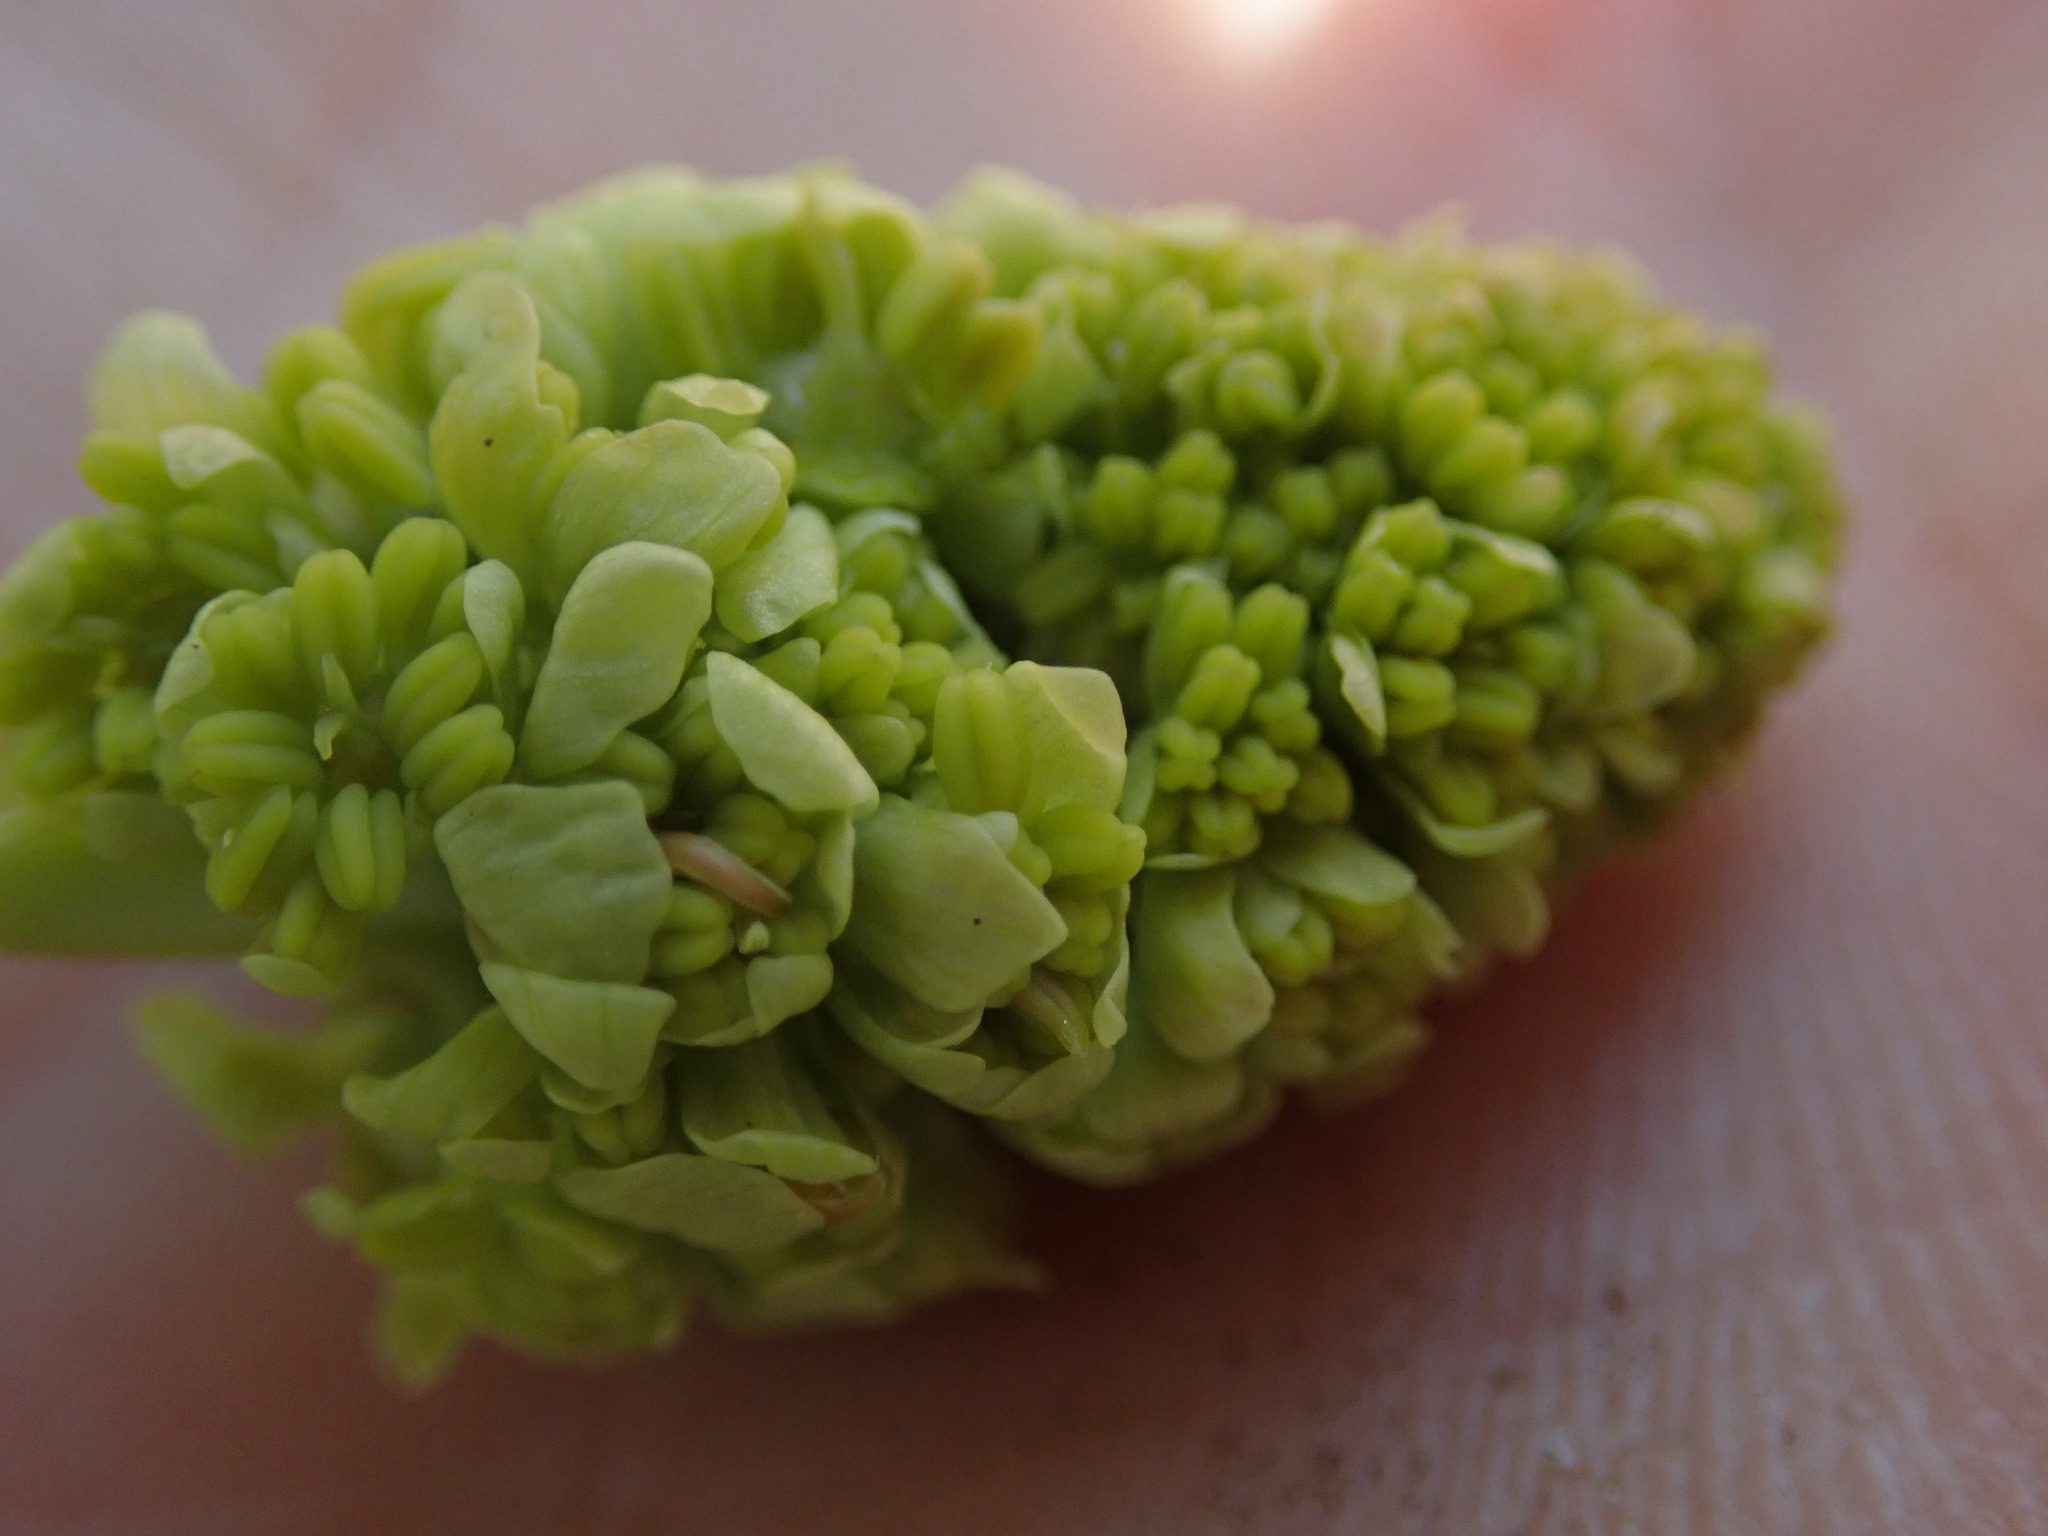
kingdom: Plantae
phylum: Tracheophyta
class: Magnoliopsida
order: Sapindales
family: Sapindaceae
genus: Acer
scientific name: Acer macrophyllum
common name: Oregon maple
